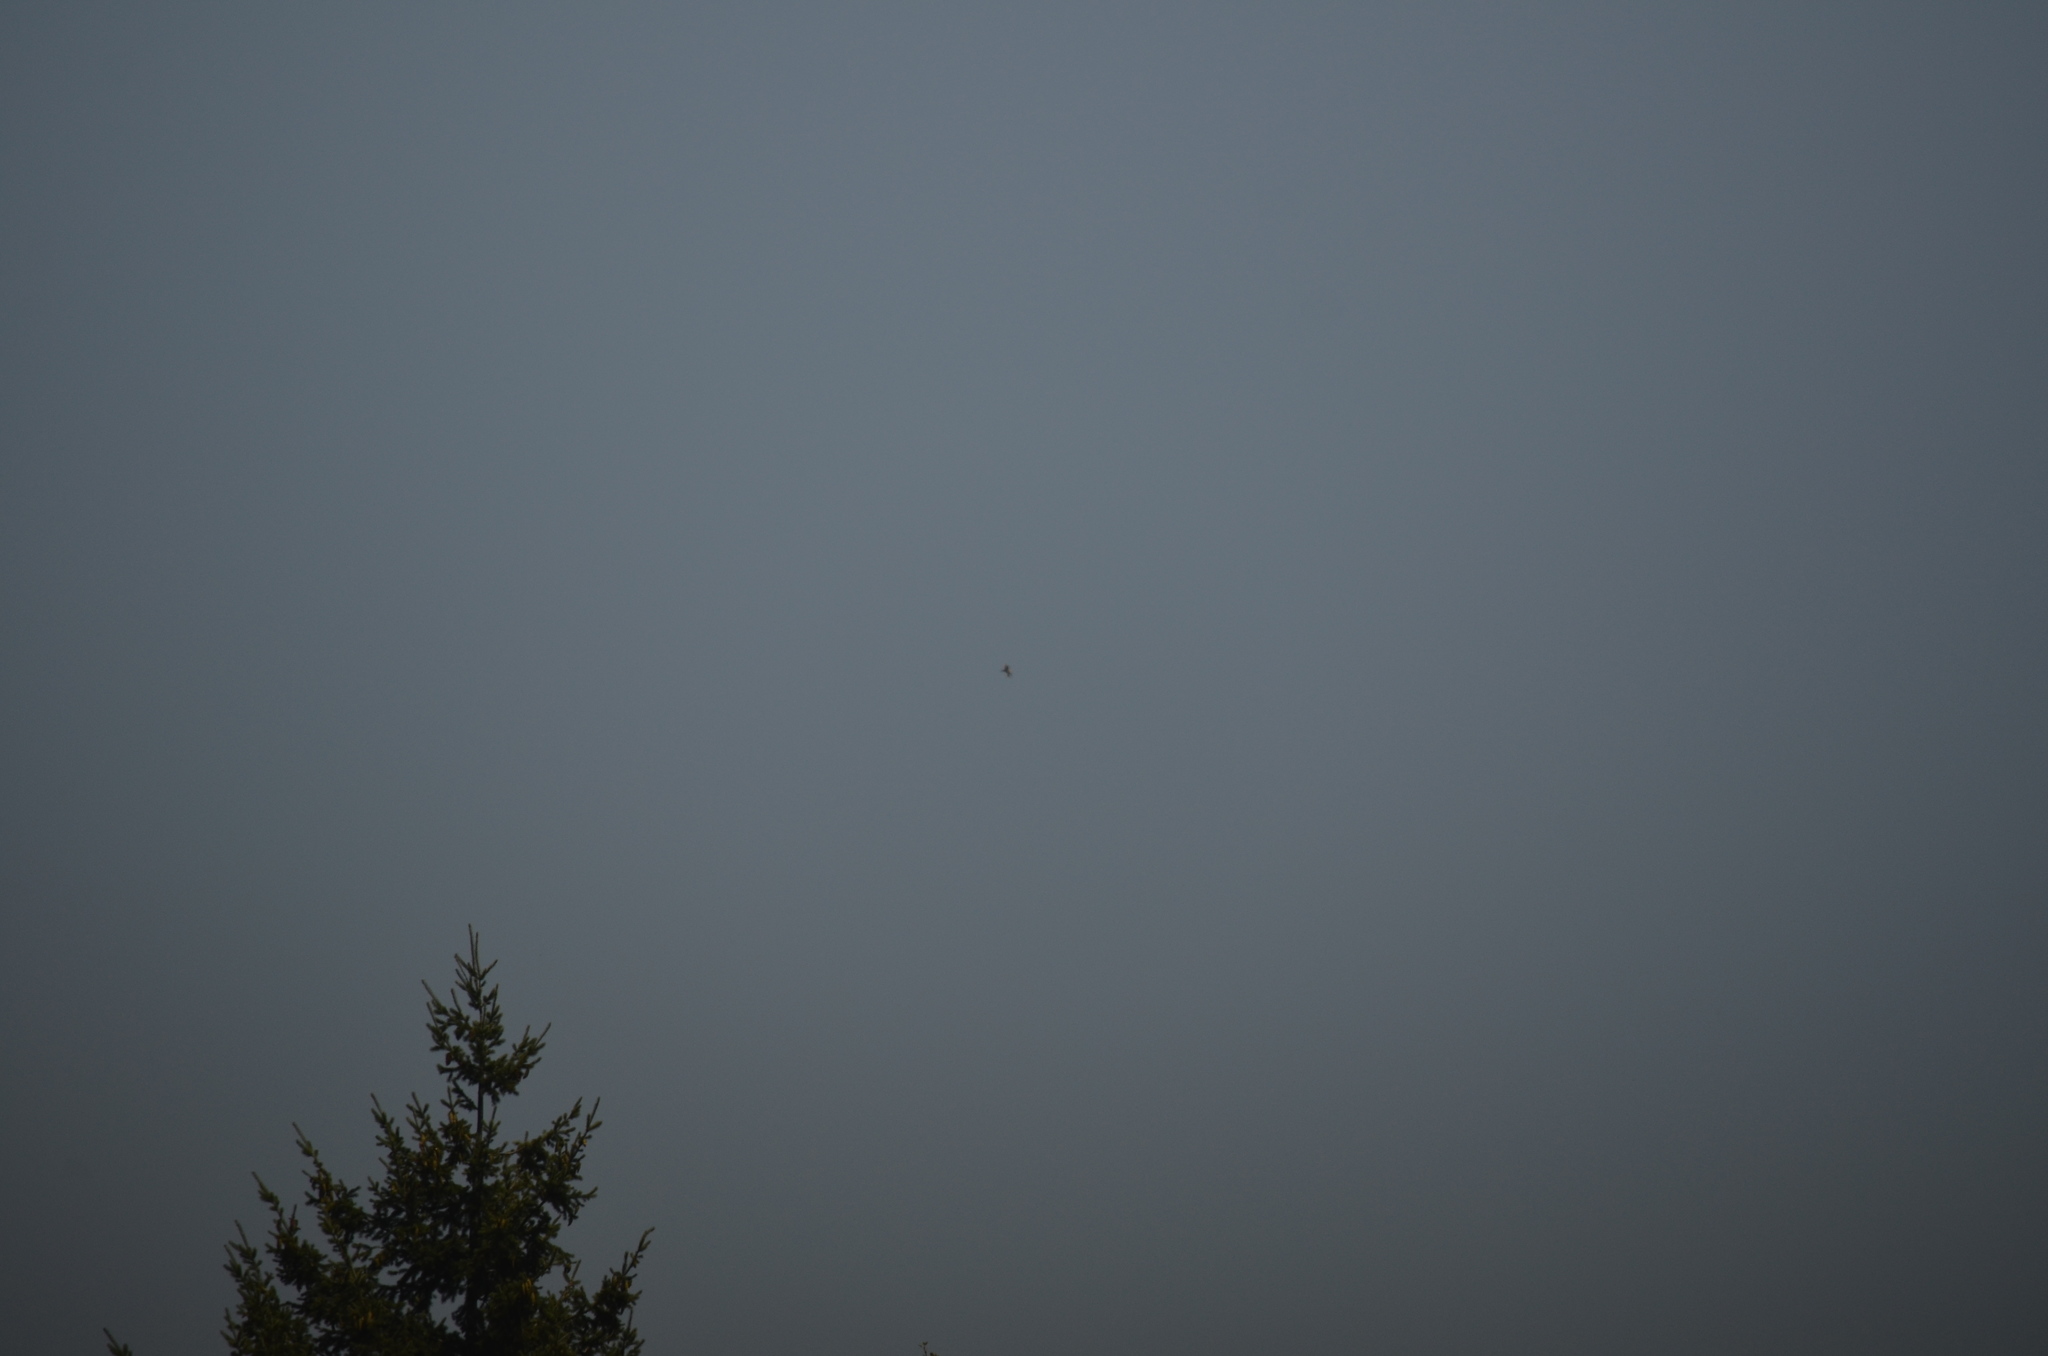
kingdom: Animalia
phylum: Chordata
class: Aves
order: Accipitriformes
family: Cathartidae
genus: Cathartes
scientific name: Cathartes aura
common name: Turkey vulture
